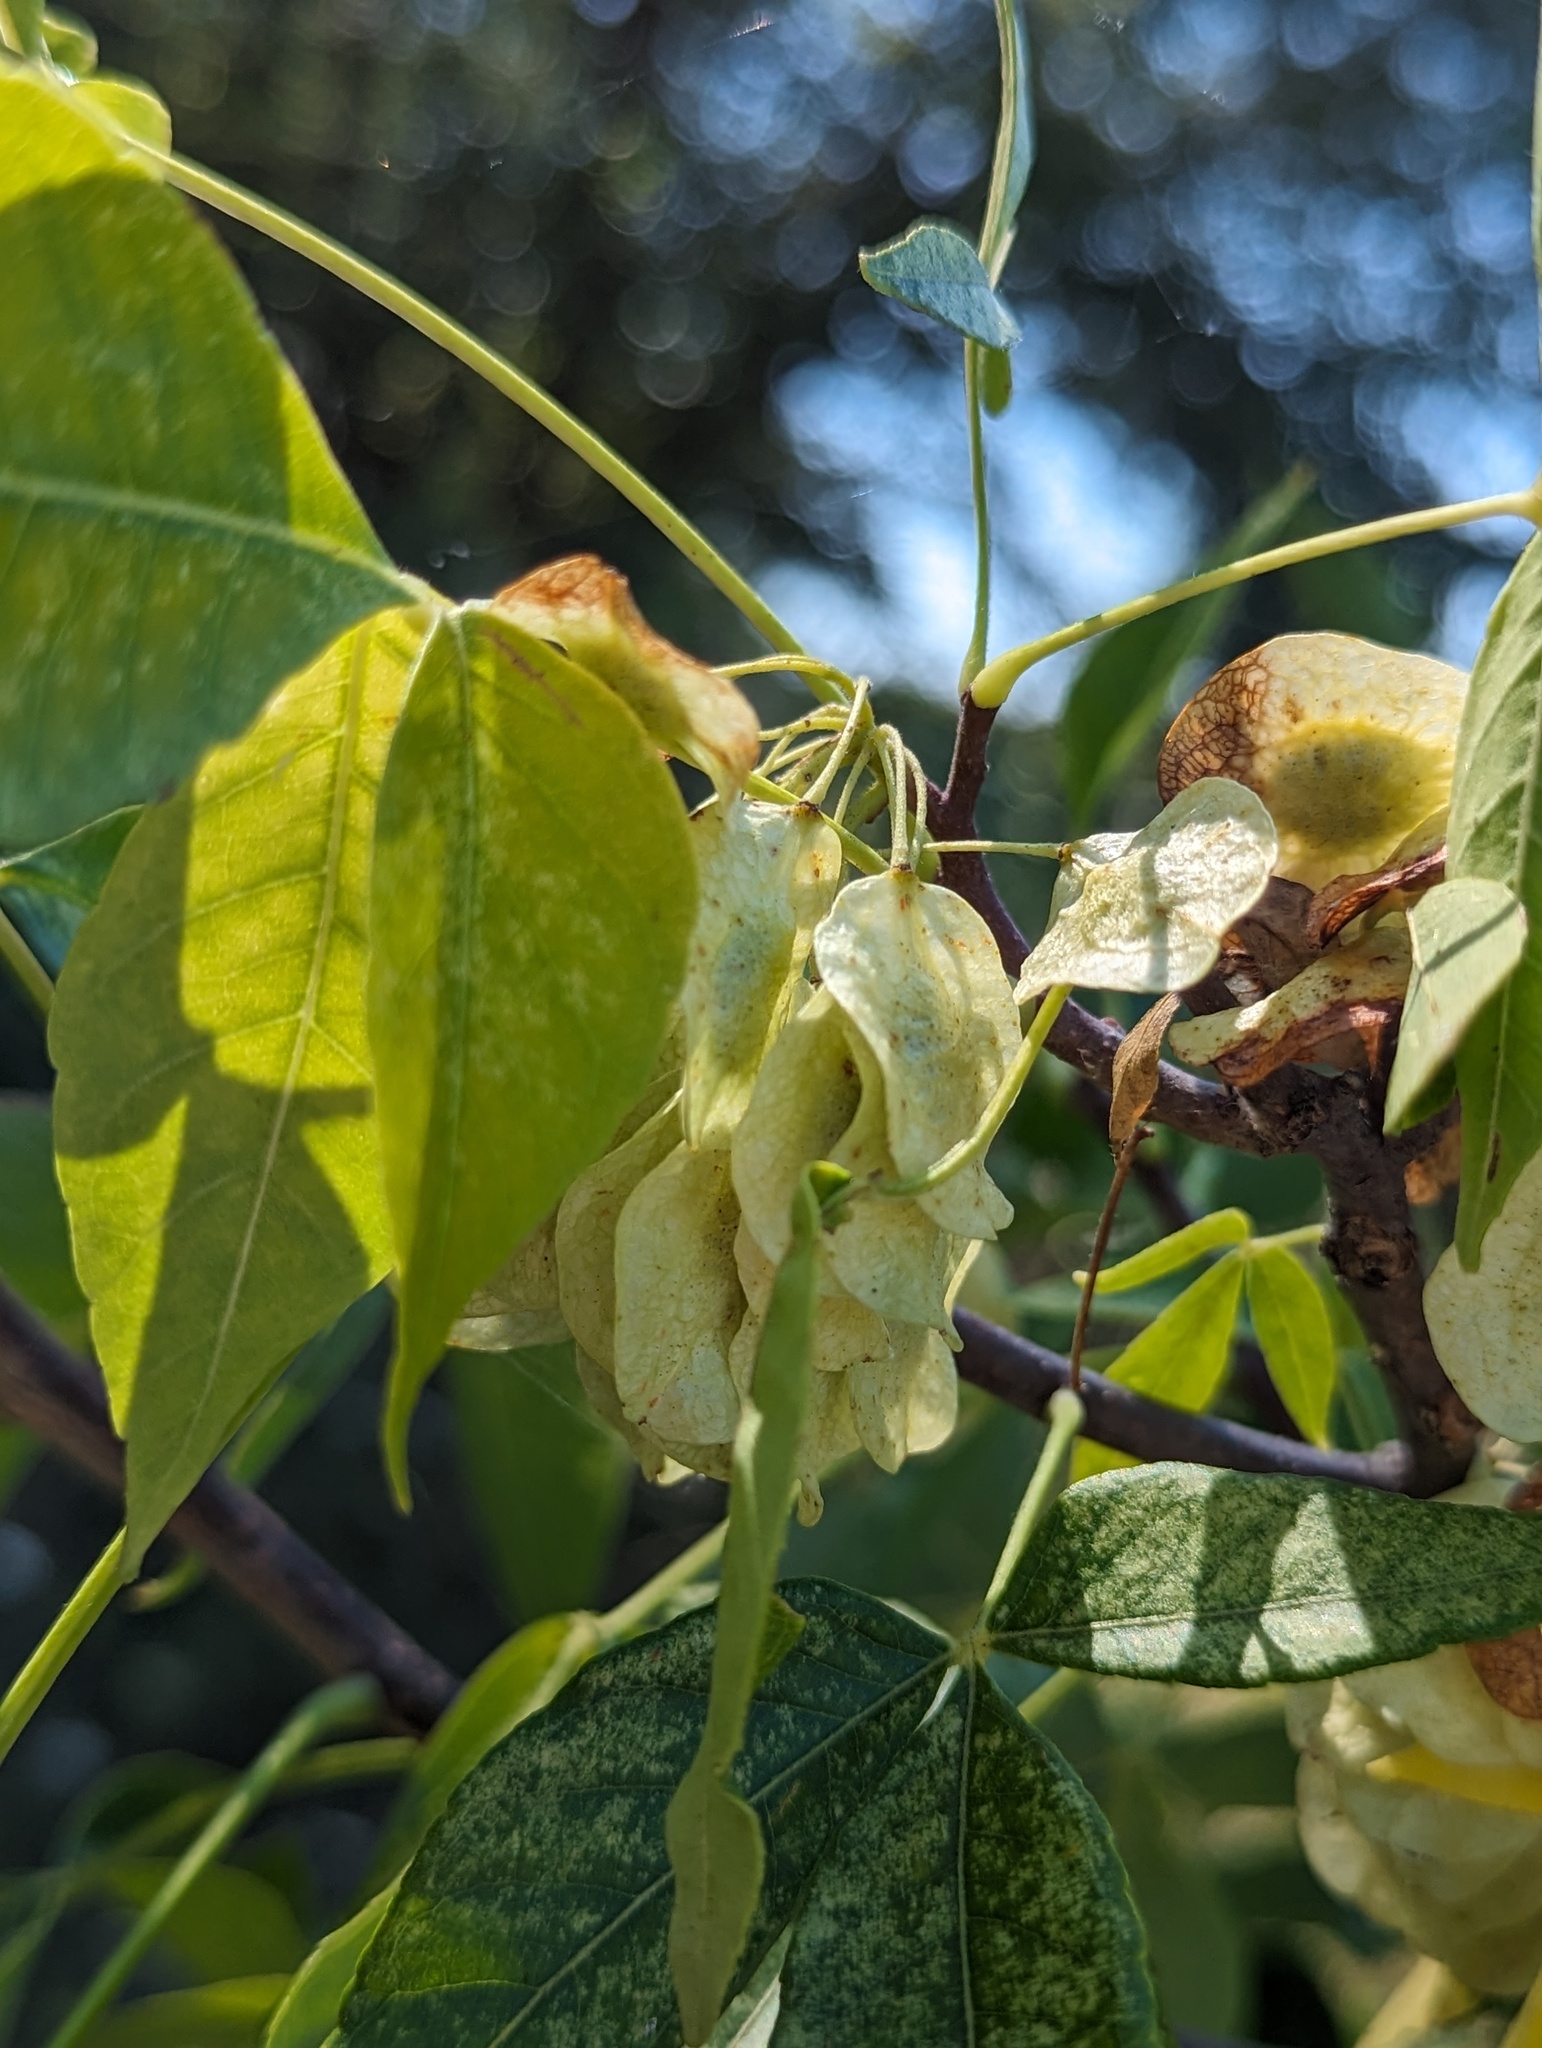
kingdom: Plantae
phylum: Tracheophyta
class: Magnoliopsida
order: Sapindales
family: Rutaceae
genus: Ptelea
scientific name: Ptelea trifoliata
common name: Common hop-tree
